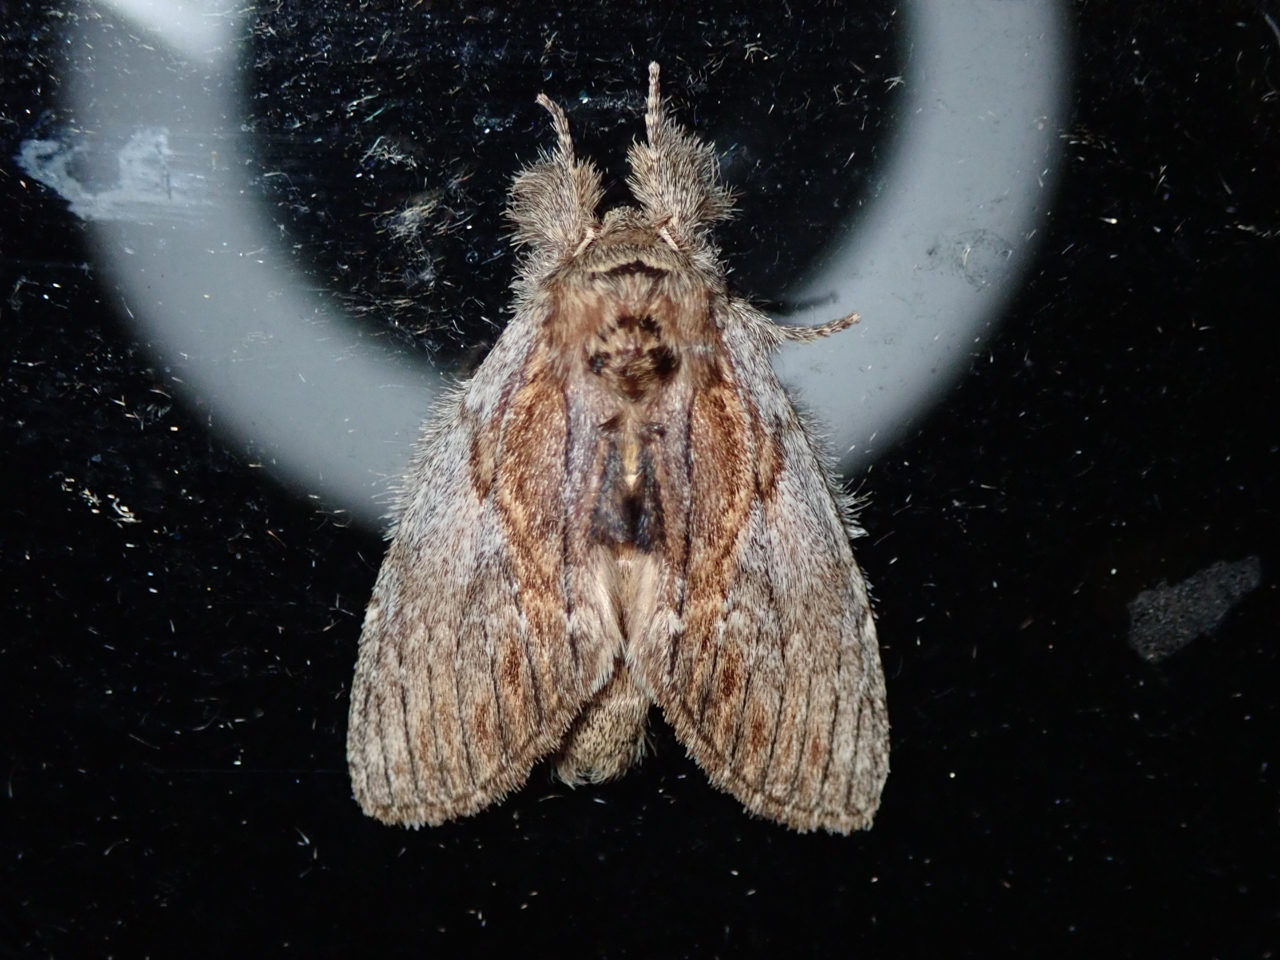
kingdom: Animalia
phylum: Arthropoda
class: Insecta
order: Lepidoptera
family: Notodontidae
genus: Peridea
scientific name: Peridea basitriens
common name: Oval-based prominent
